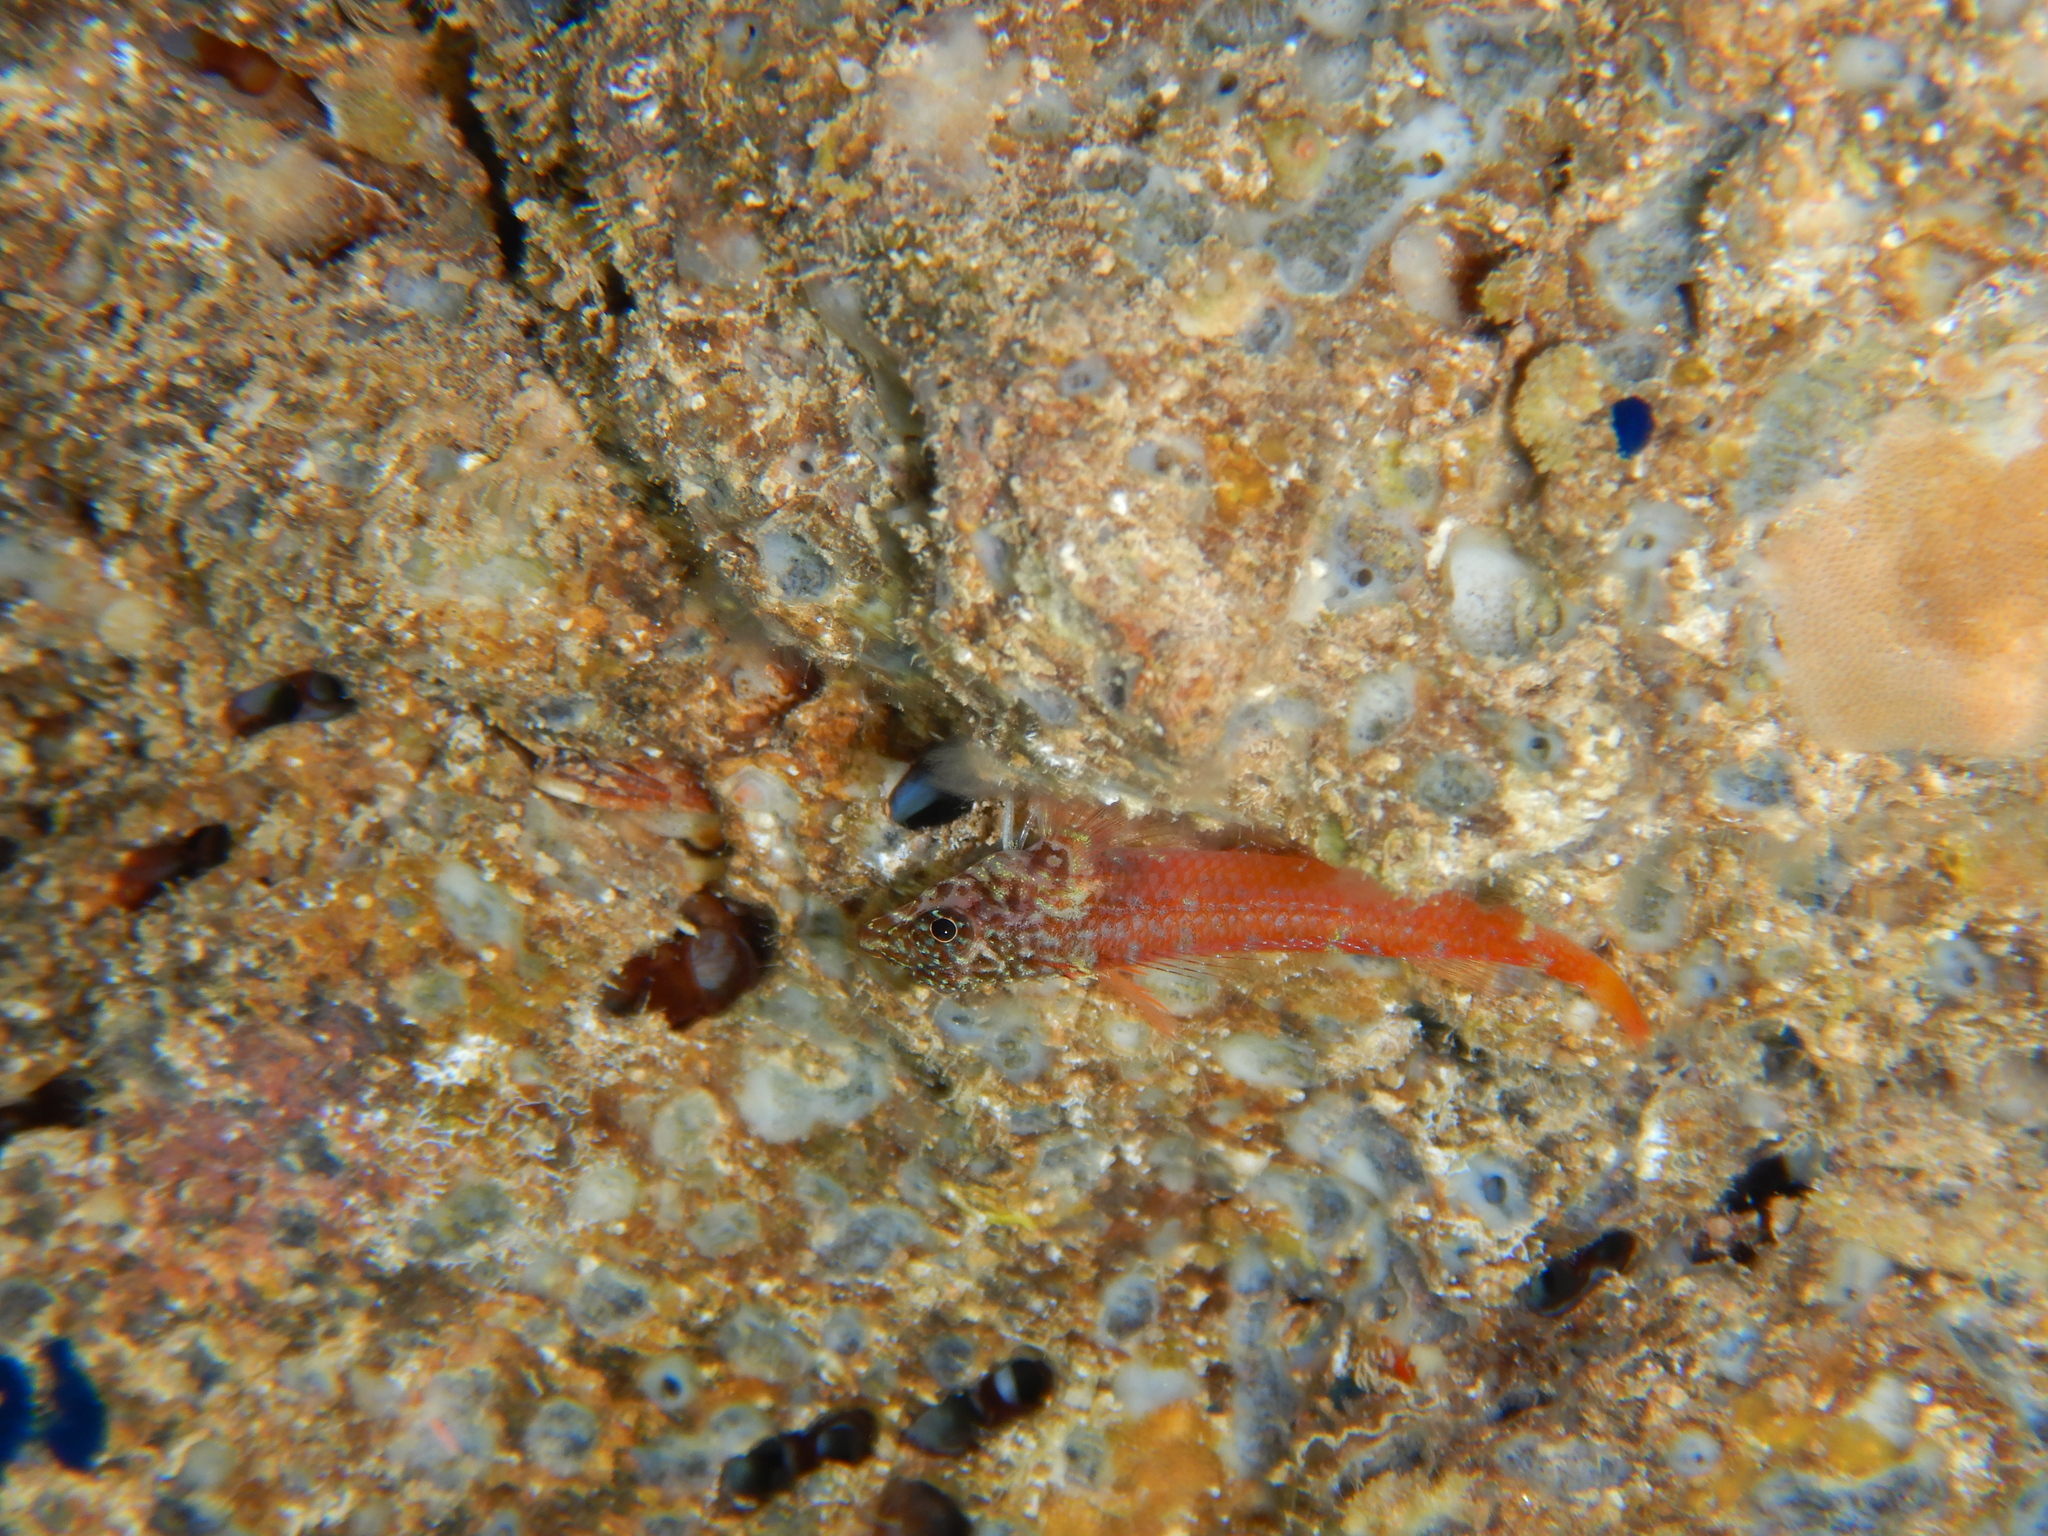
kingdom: Animalia
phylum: Chordata
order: Perciformes
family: Tripterygiidae
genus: Tripterygion
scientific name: Tripterygion melanurum
